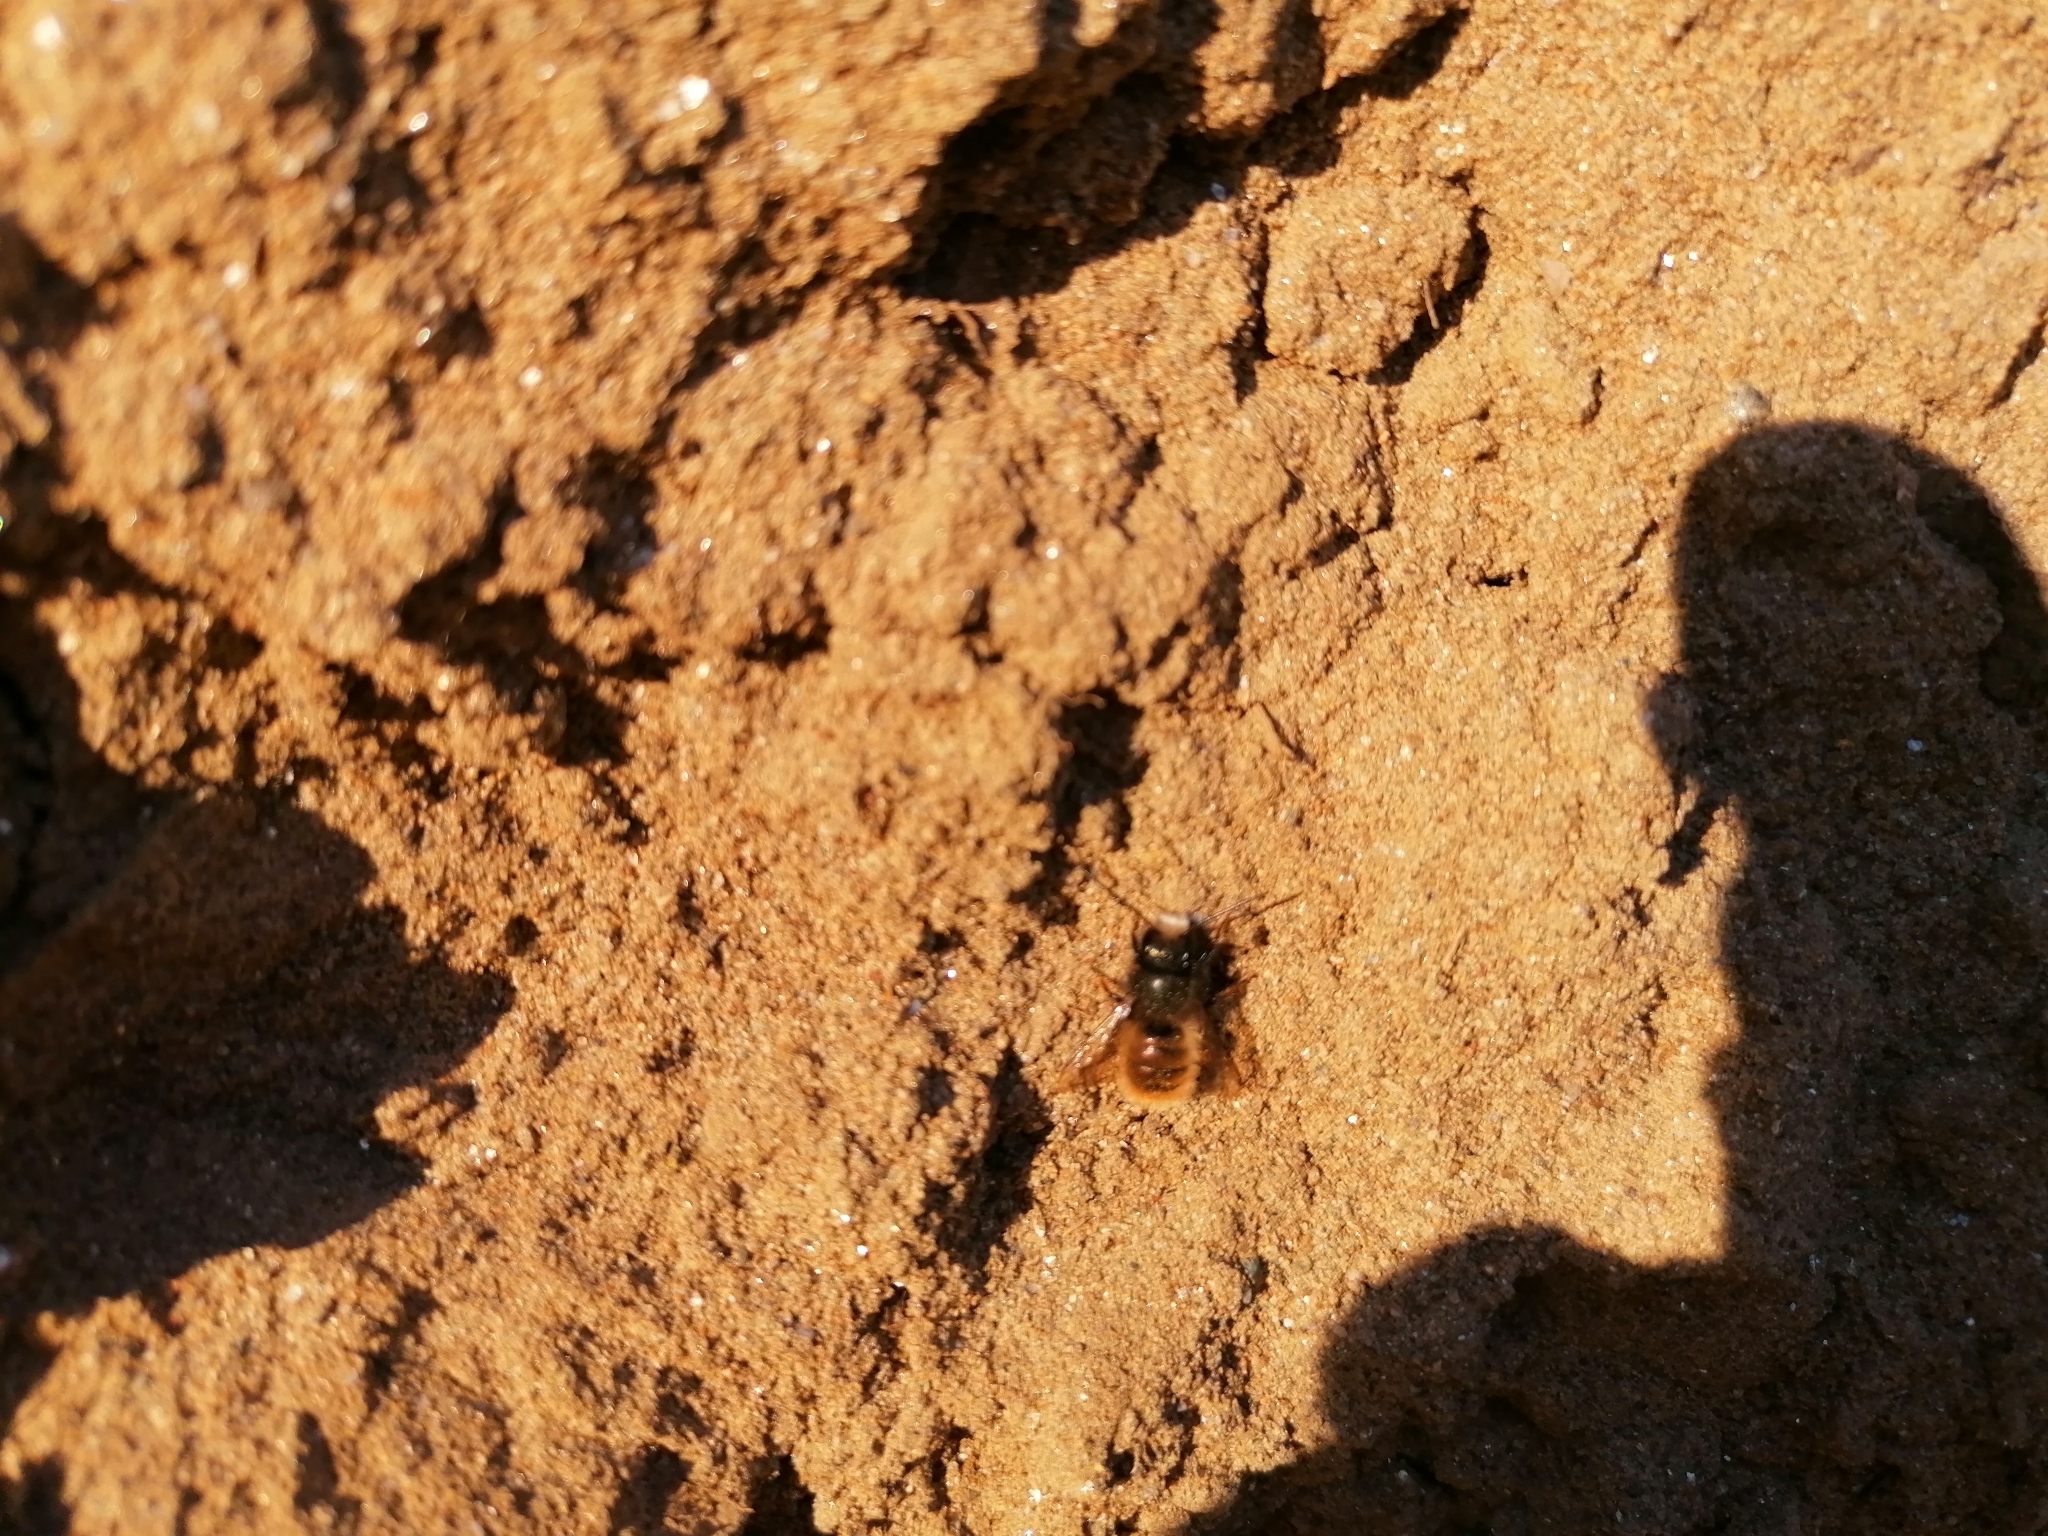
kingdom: Animalia
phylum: Arthropoda
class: Insecta
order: Hymenoptera
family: Megachilidae
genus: Osmia
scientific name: Osmia cornuta
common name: Mason bee
